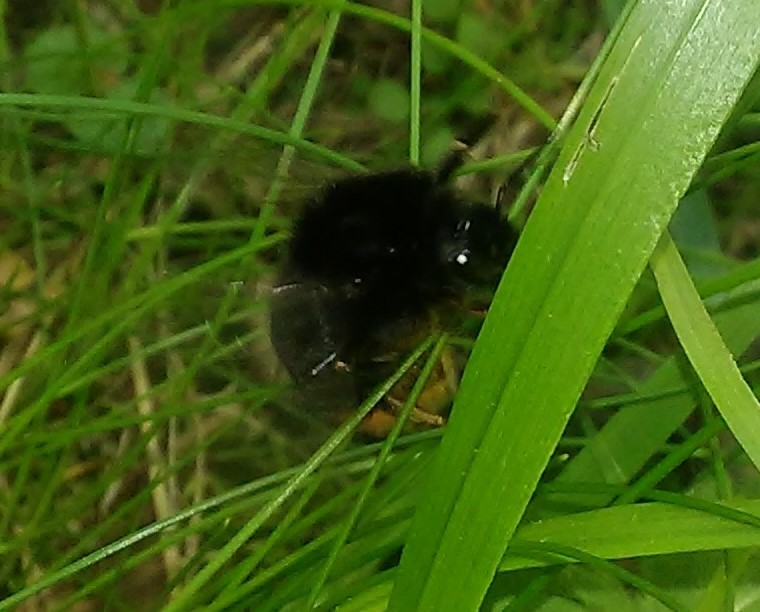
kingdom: Animalia
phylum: Arthropoda
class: Insecta
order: Hymenoptera
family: Apidae
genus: Bombus
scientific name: Bombus
